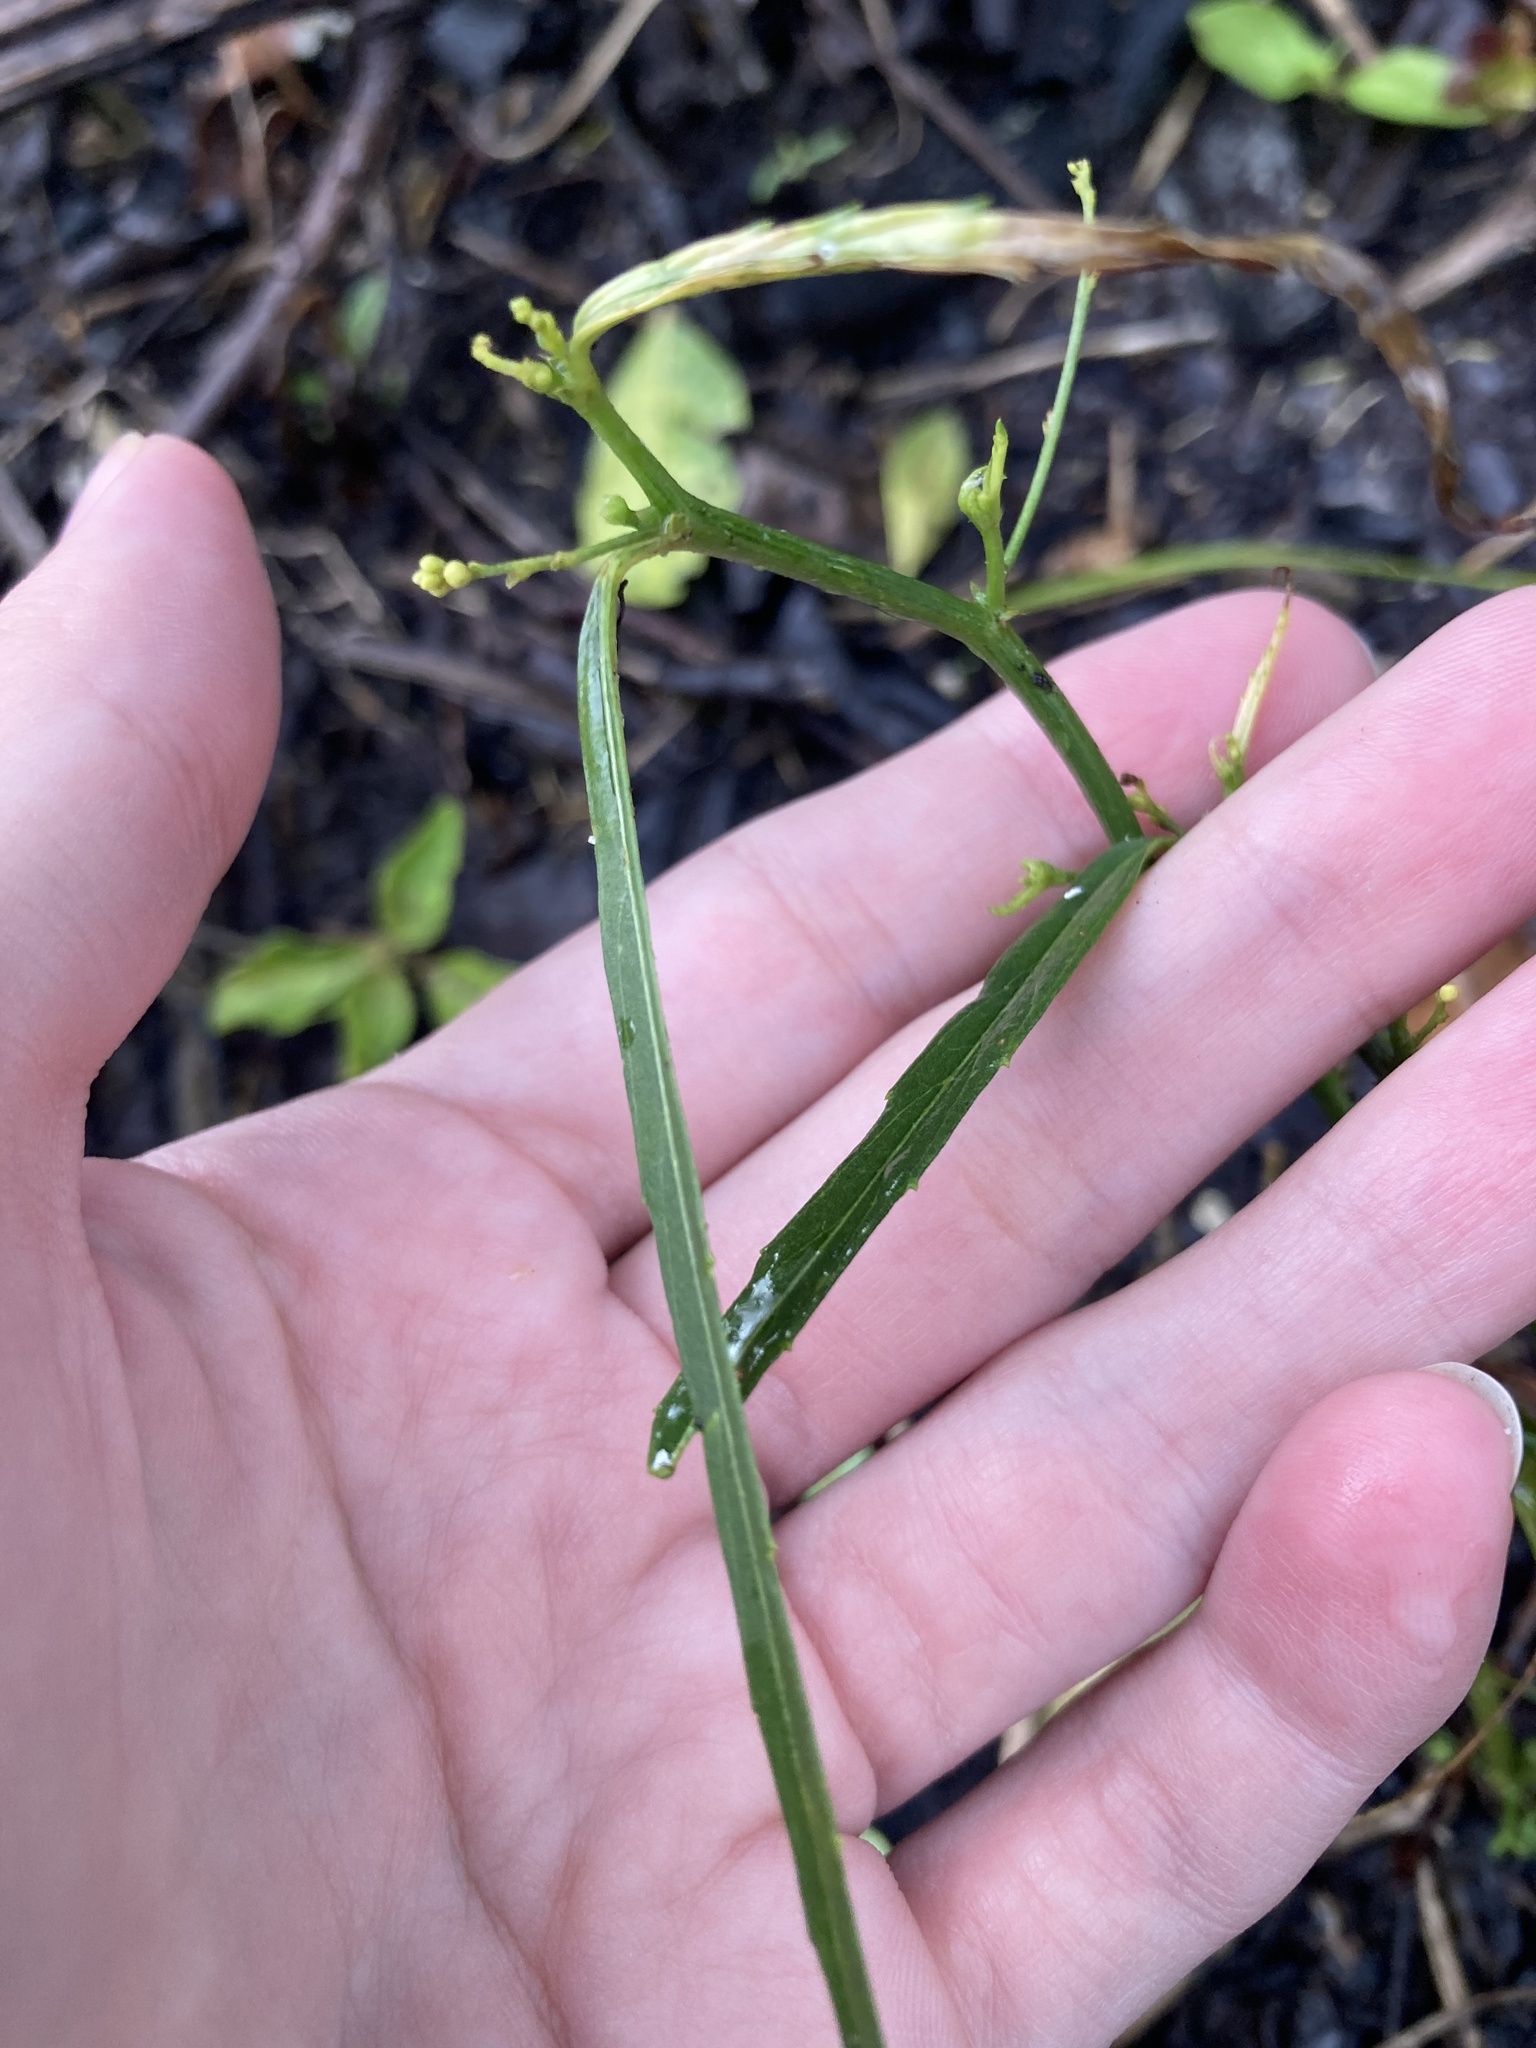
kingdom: Plantae
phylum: Tracheophyta
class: Magnoliopsida
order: Malpighiales
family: Euphorbiaceae
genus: Caperonia
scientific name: Caperonia castaneifolia
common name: Chestnutleaf false croton
